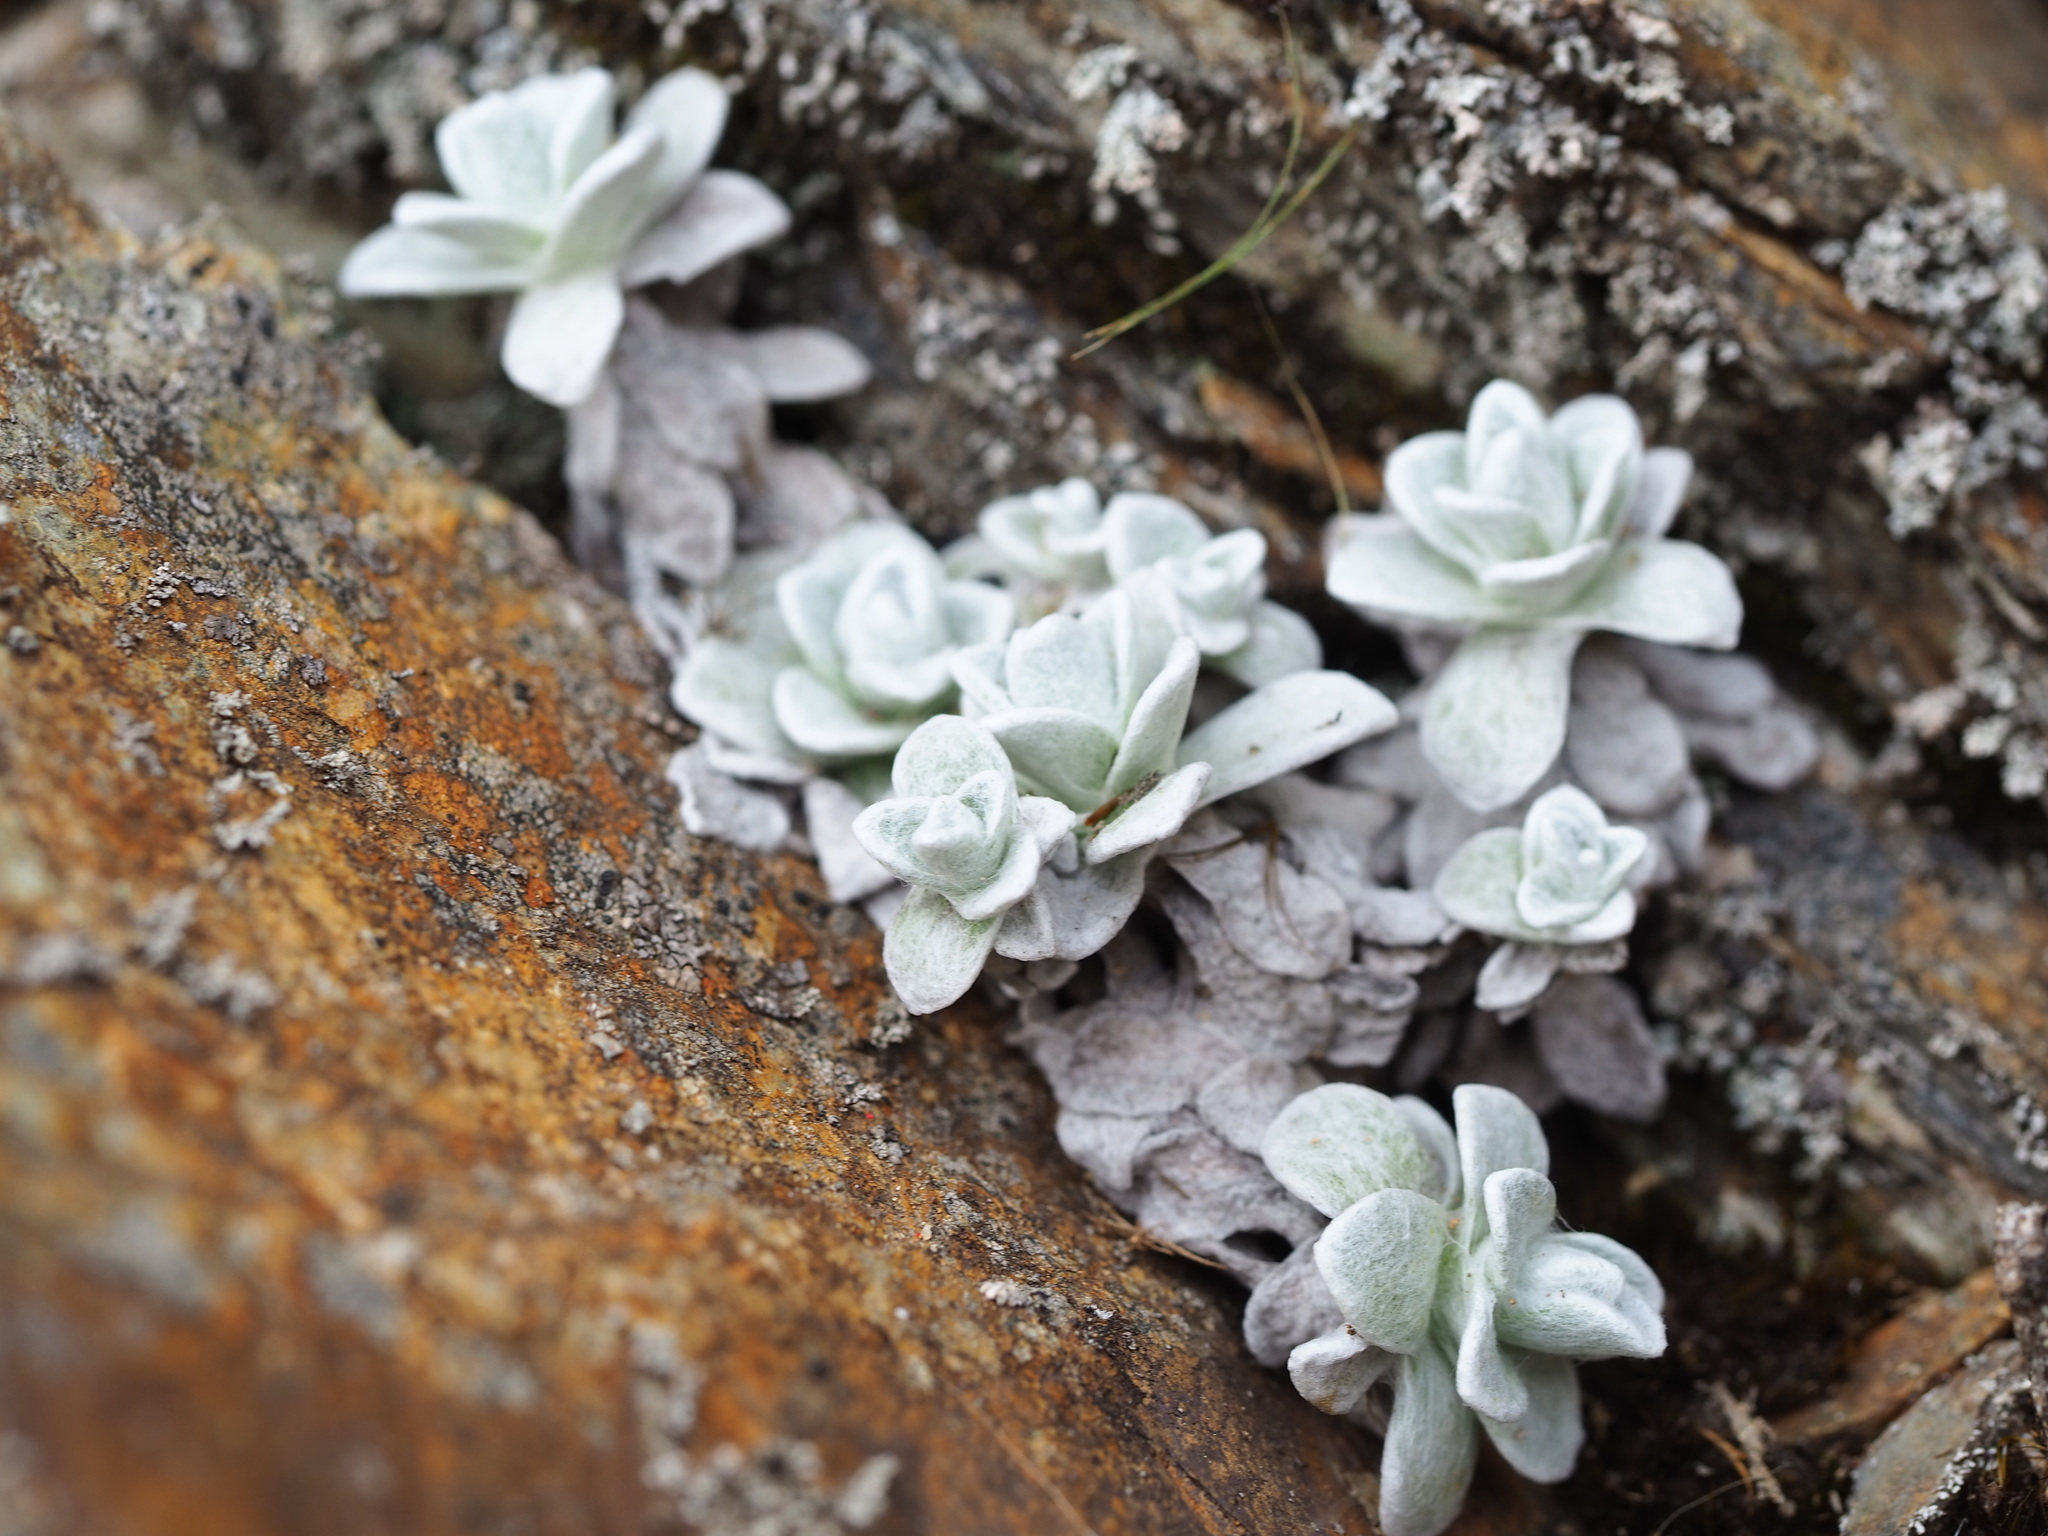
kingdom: Plantae
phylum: Tracheophyta
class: Magnoliopsida
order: Asterales
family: Asteraceae
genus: Anaphalis
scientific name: Anaphalis nepalensis
